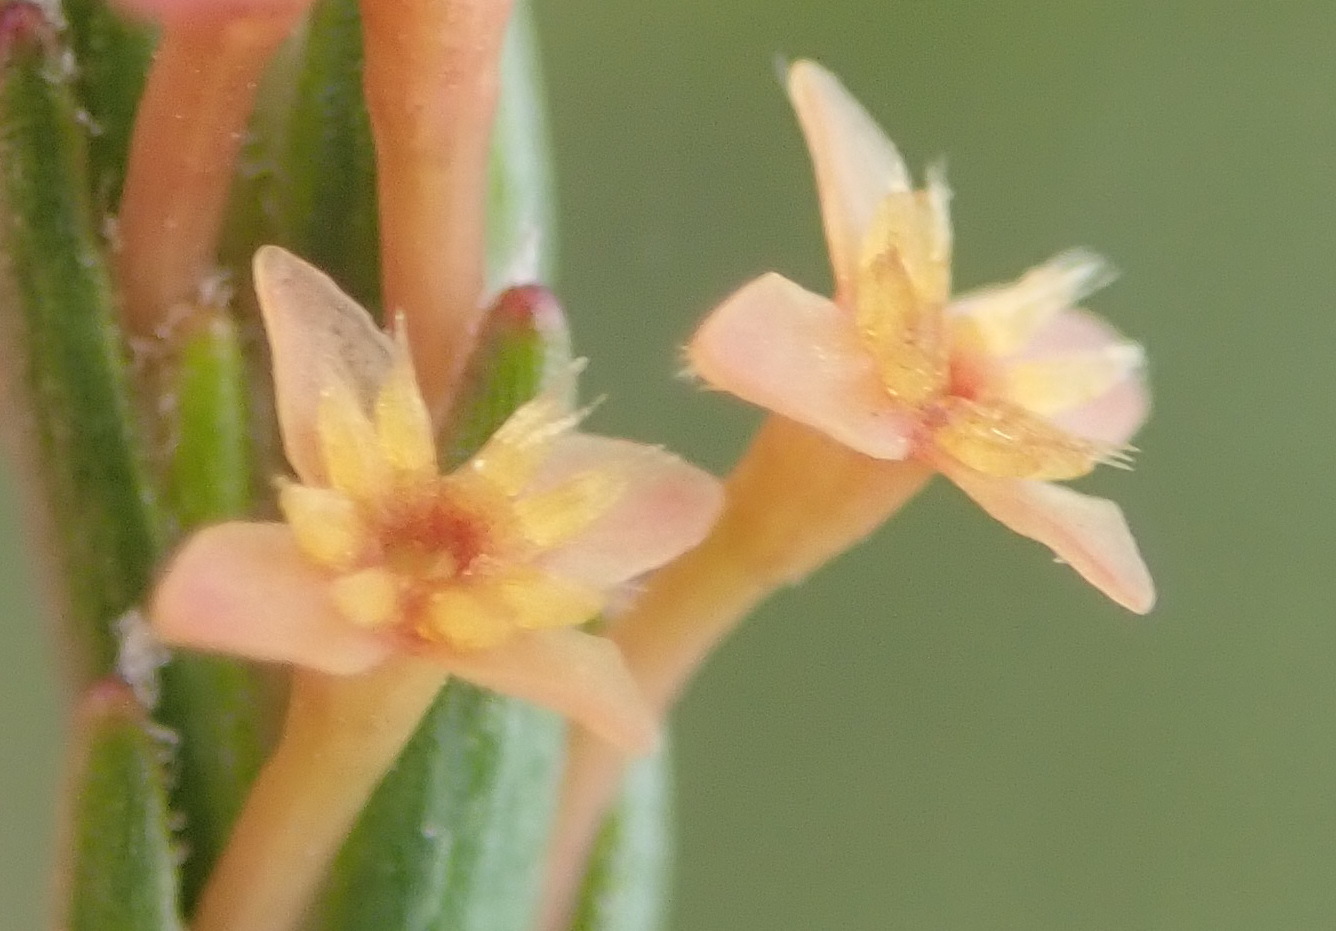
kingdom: Plantae
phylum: Tracheophyta
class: Magnoliopsida
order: Malvales
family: Thymelaeaceae
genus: Struthiola
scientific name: Struthiola parviflora
